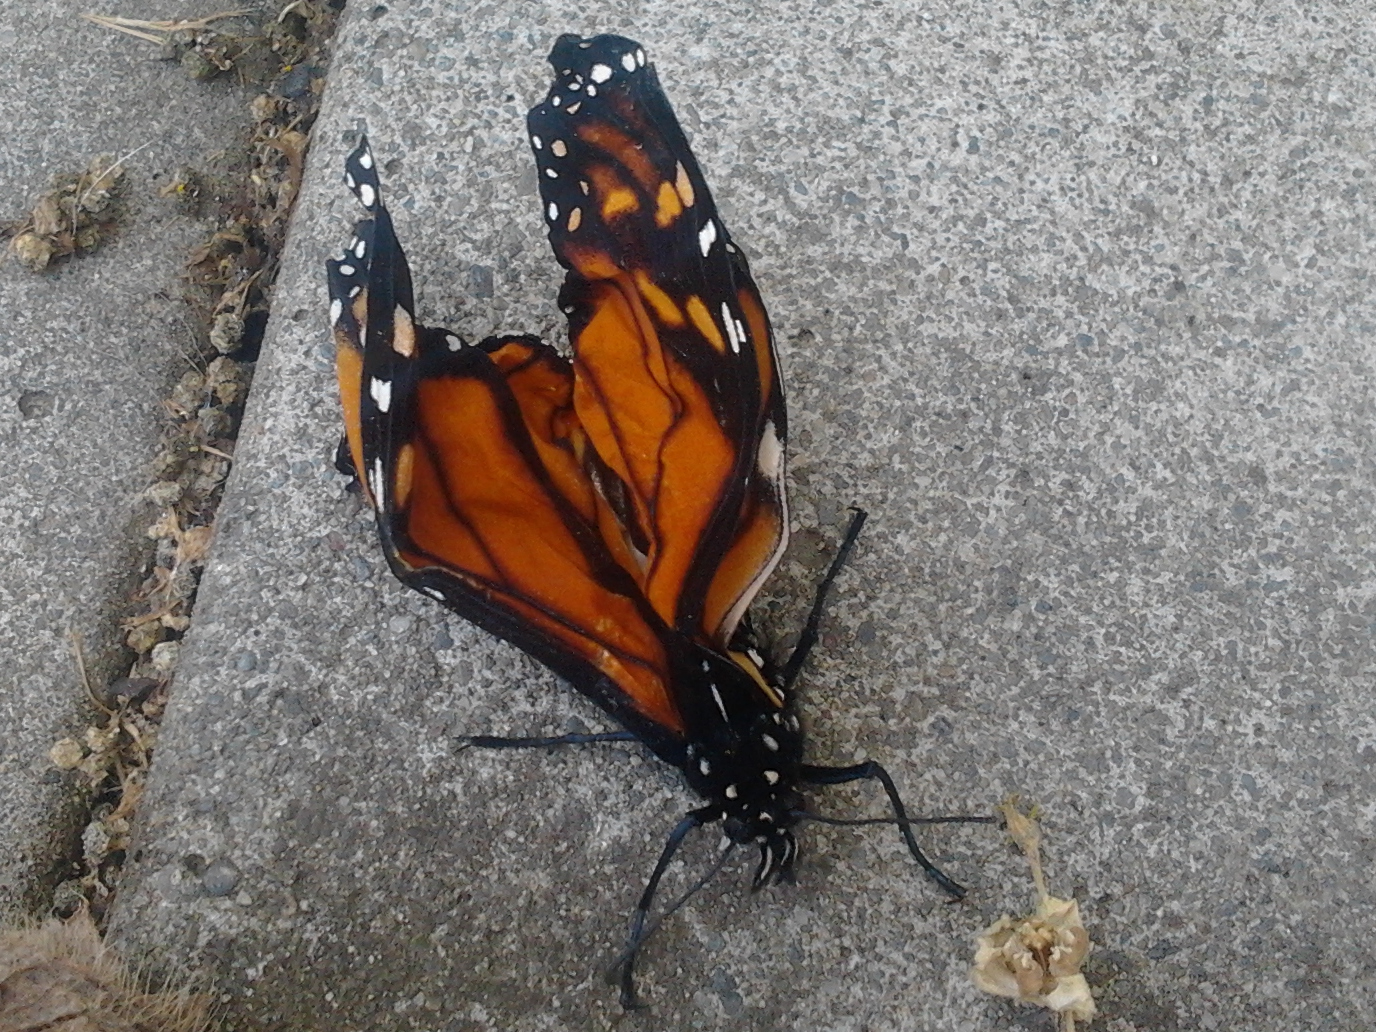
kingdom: Animalia
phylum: Arthropoda
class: Insecta
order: Lepidoptera
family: Nymphalidae
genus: Danaus
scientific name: Danaus plexippus
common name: Monarch
